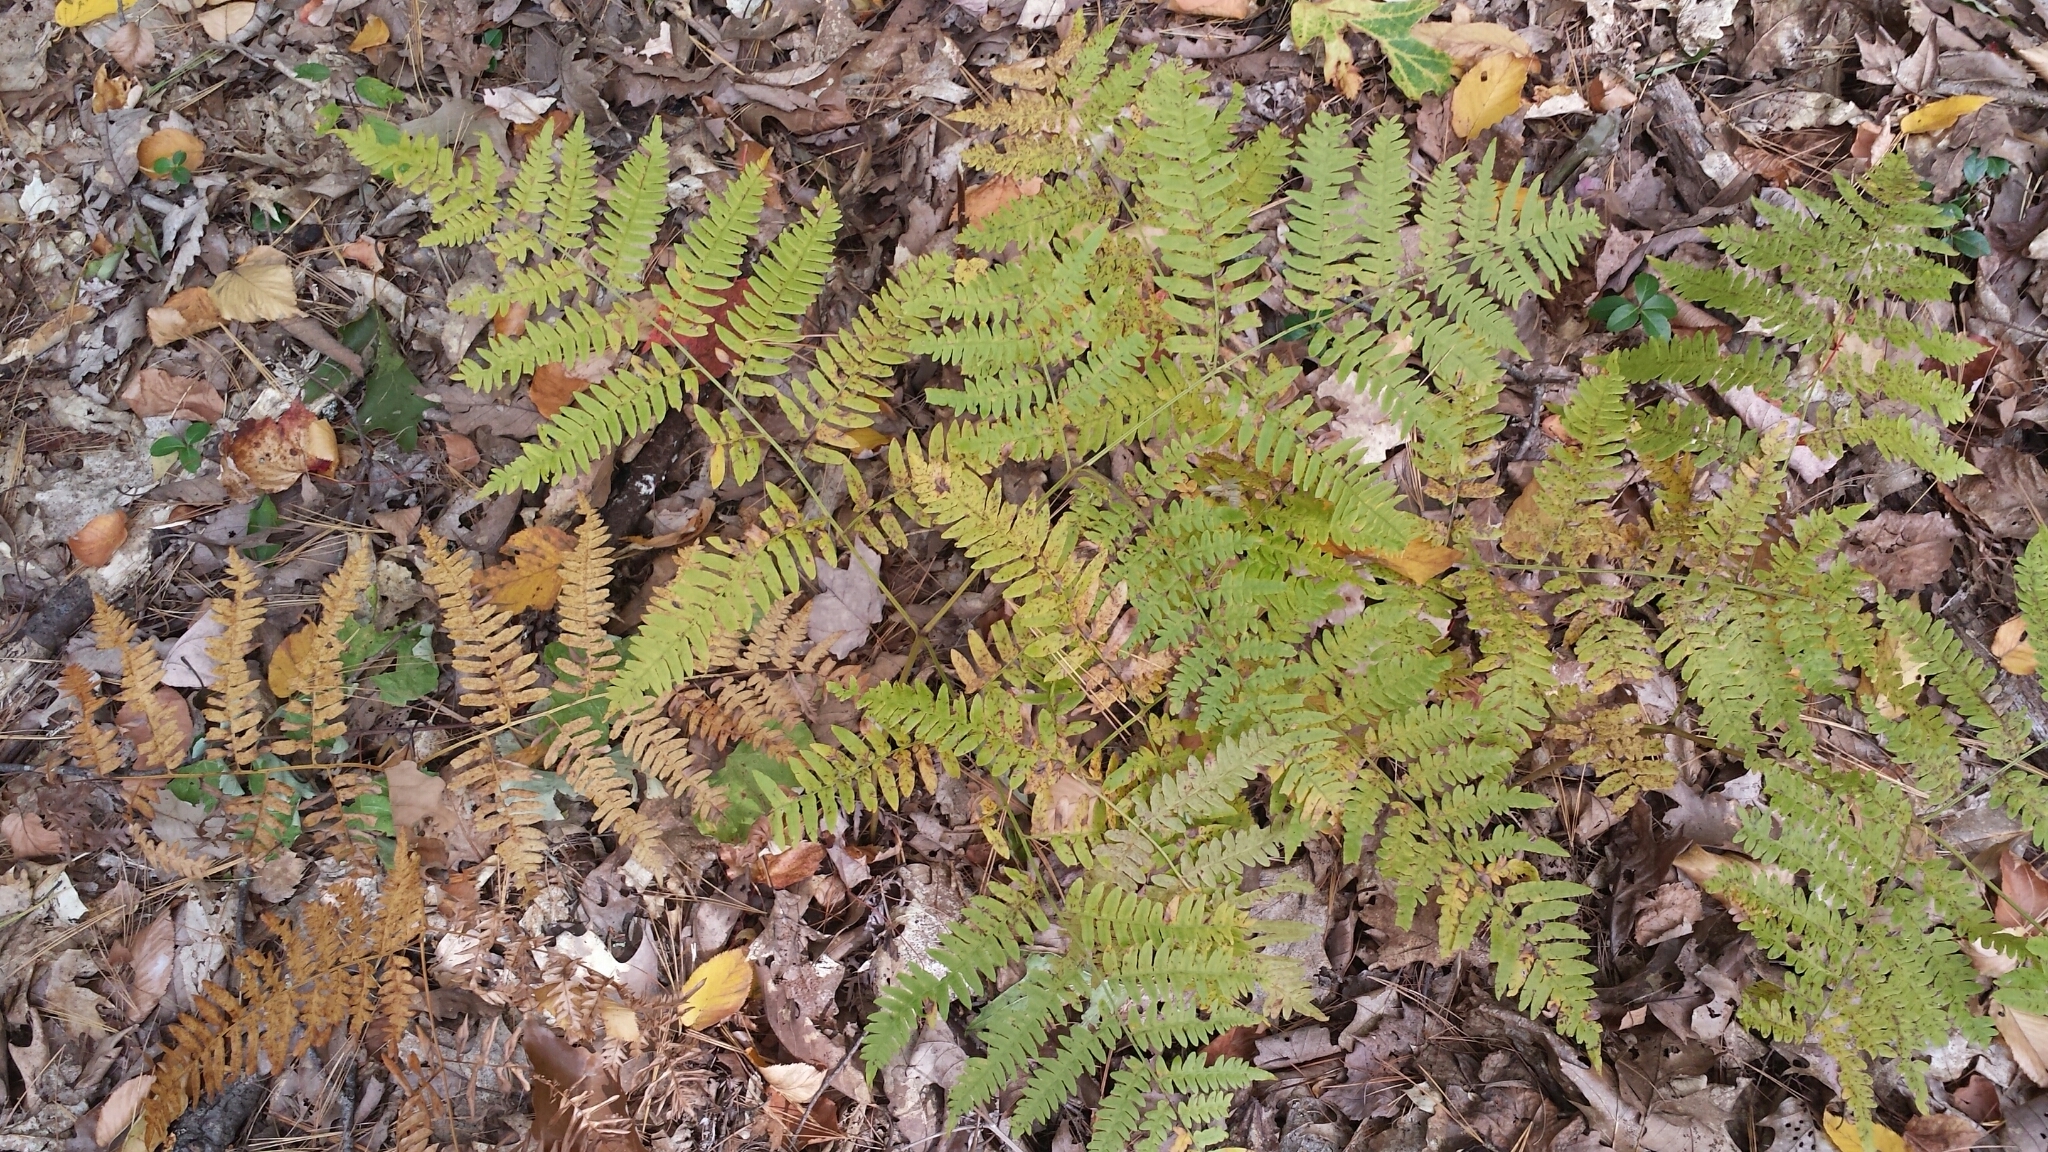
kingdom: Plantae
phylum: Tracheophyta
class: Polypodiopsida
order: Polypodiales
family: Dennstaedtiaceae
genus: Pteridium
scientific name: Pteridium aquilinum
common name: Bracken
